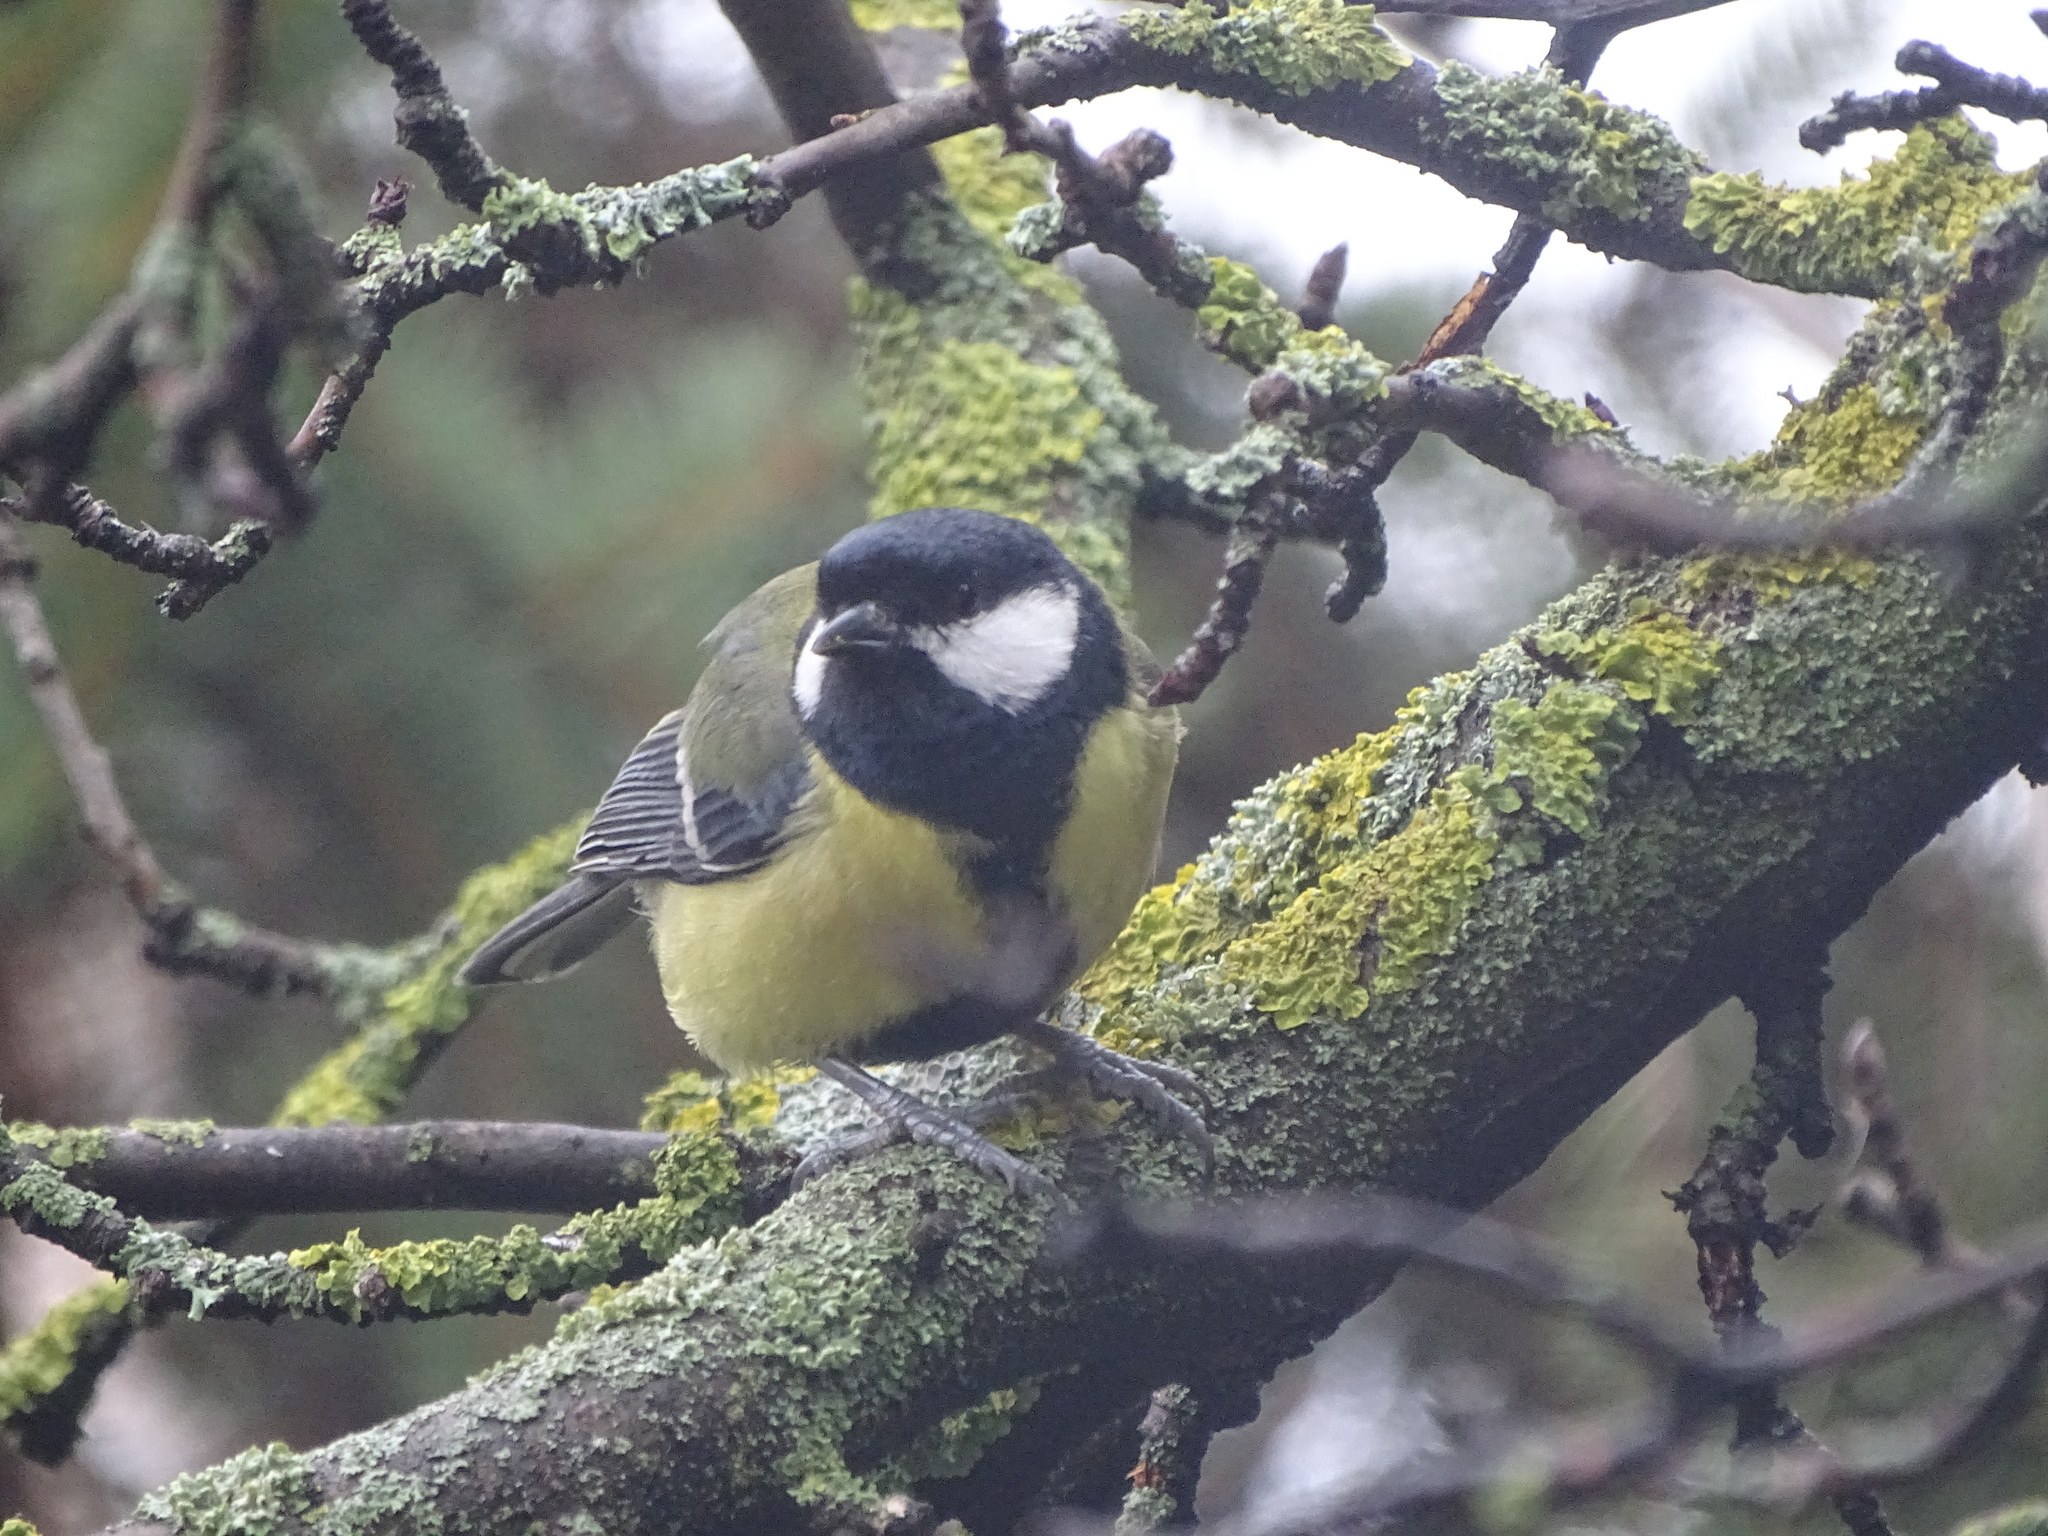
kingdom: Animalia
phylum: Chordata
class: Aves
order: Passeriformes
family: Paridae
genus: Parus
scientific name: Parus major
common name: Great tit
